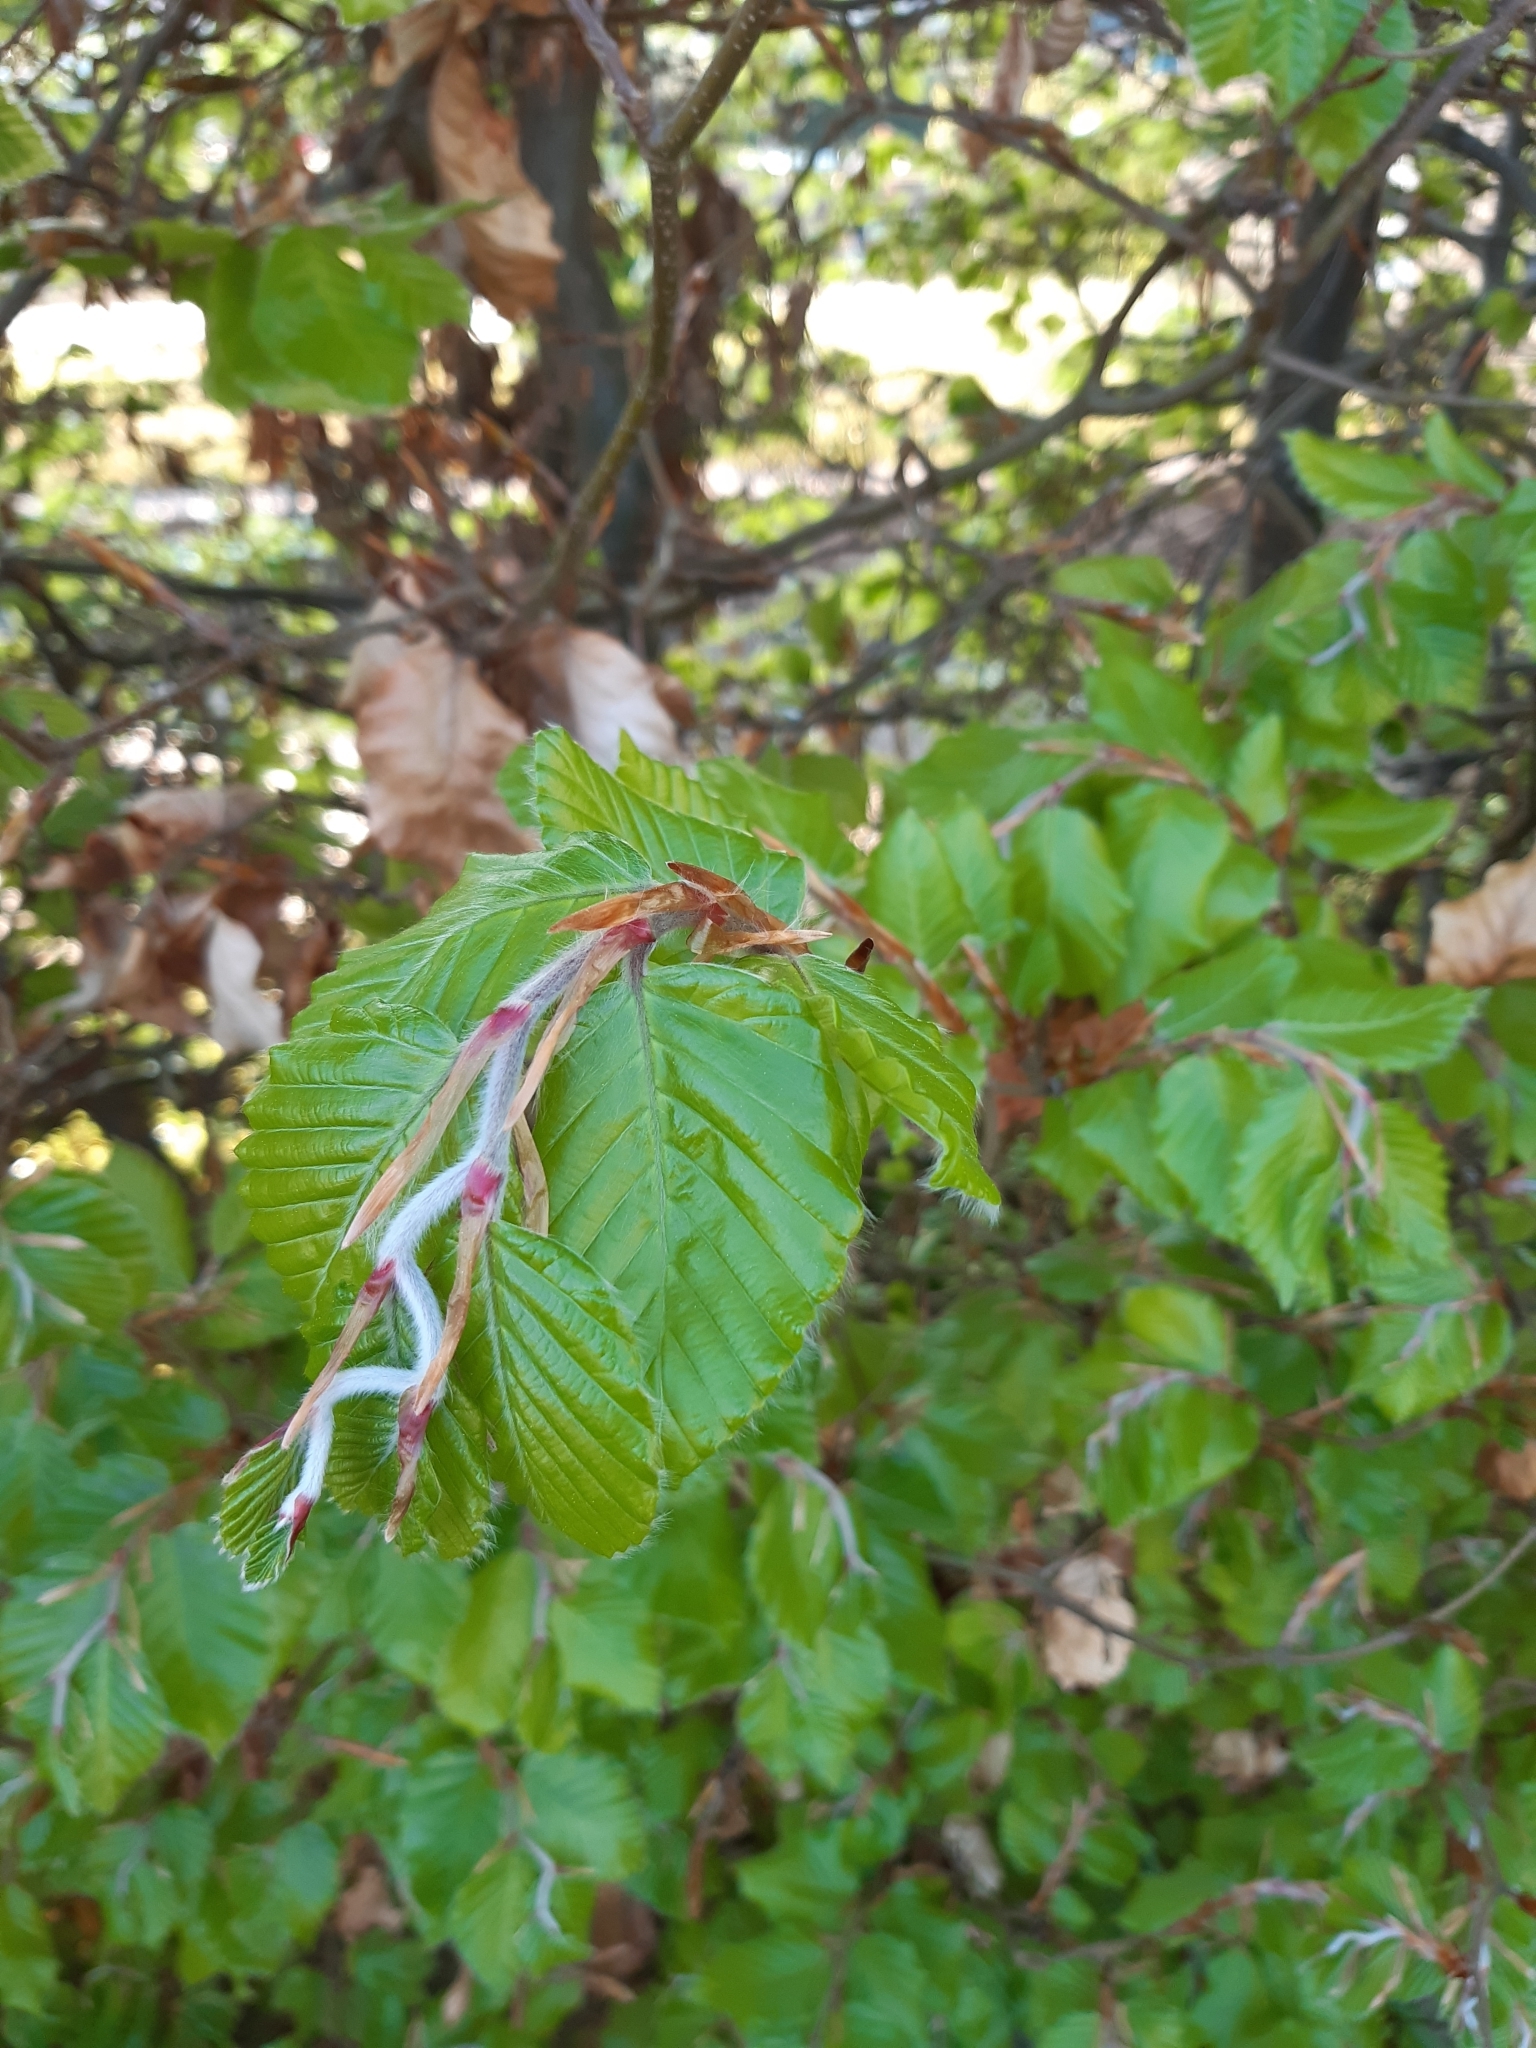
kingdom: Plantae
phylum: Tracheophyta
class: Magnoliopsida
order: Fagales
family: Fagaceae
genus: Fagus
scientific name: Fagus sylvatica
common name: Beech
